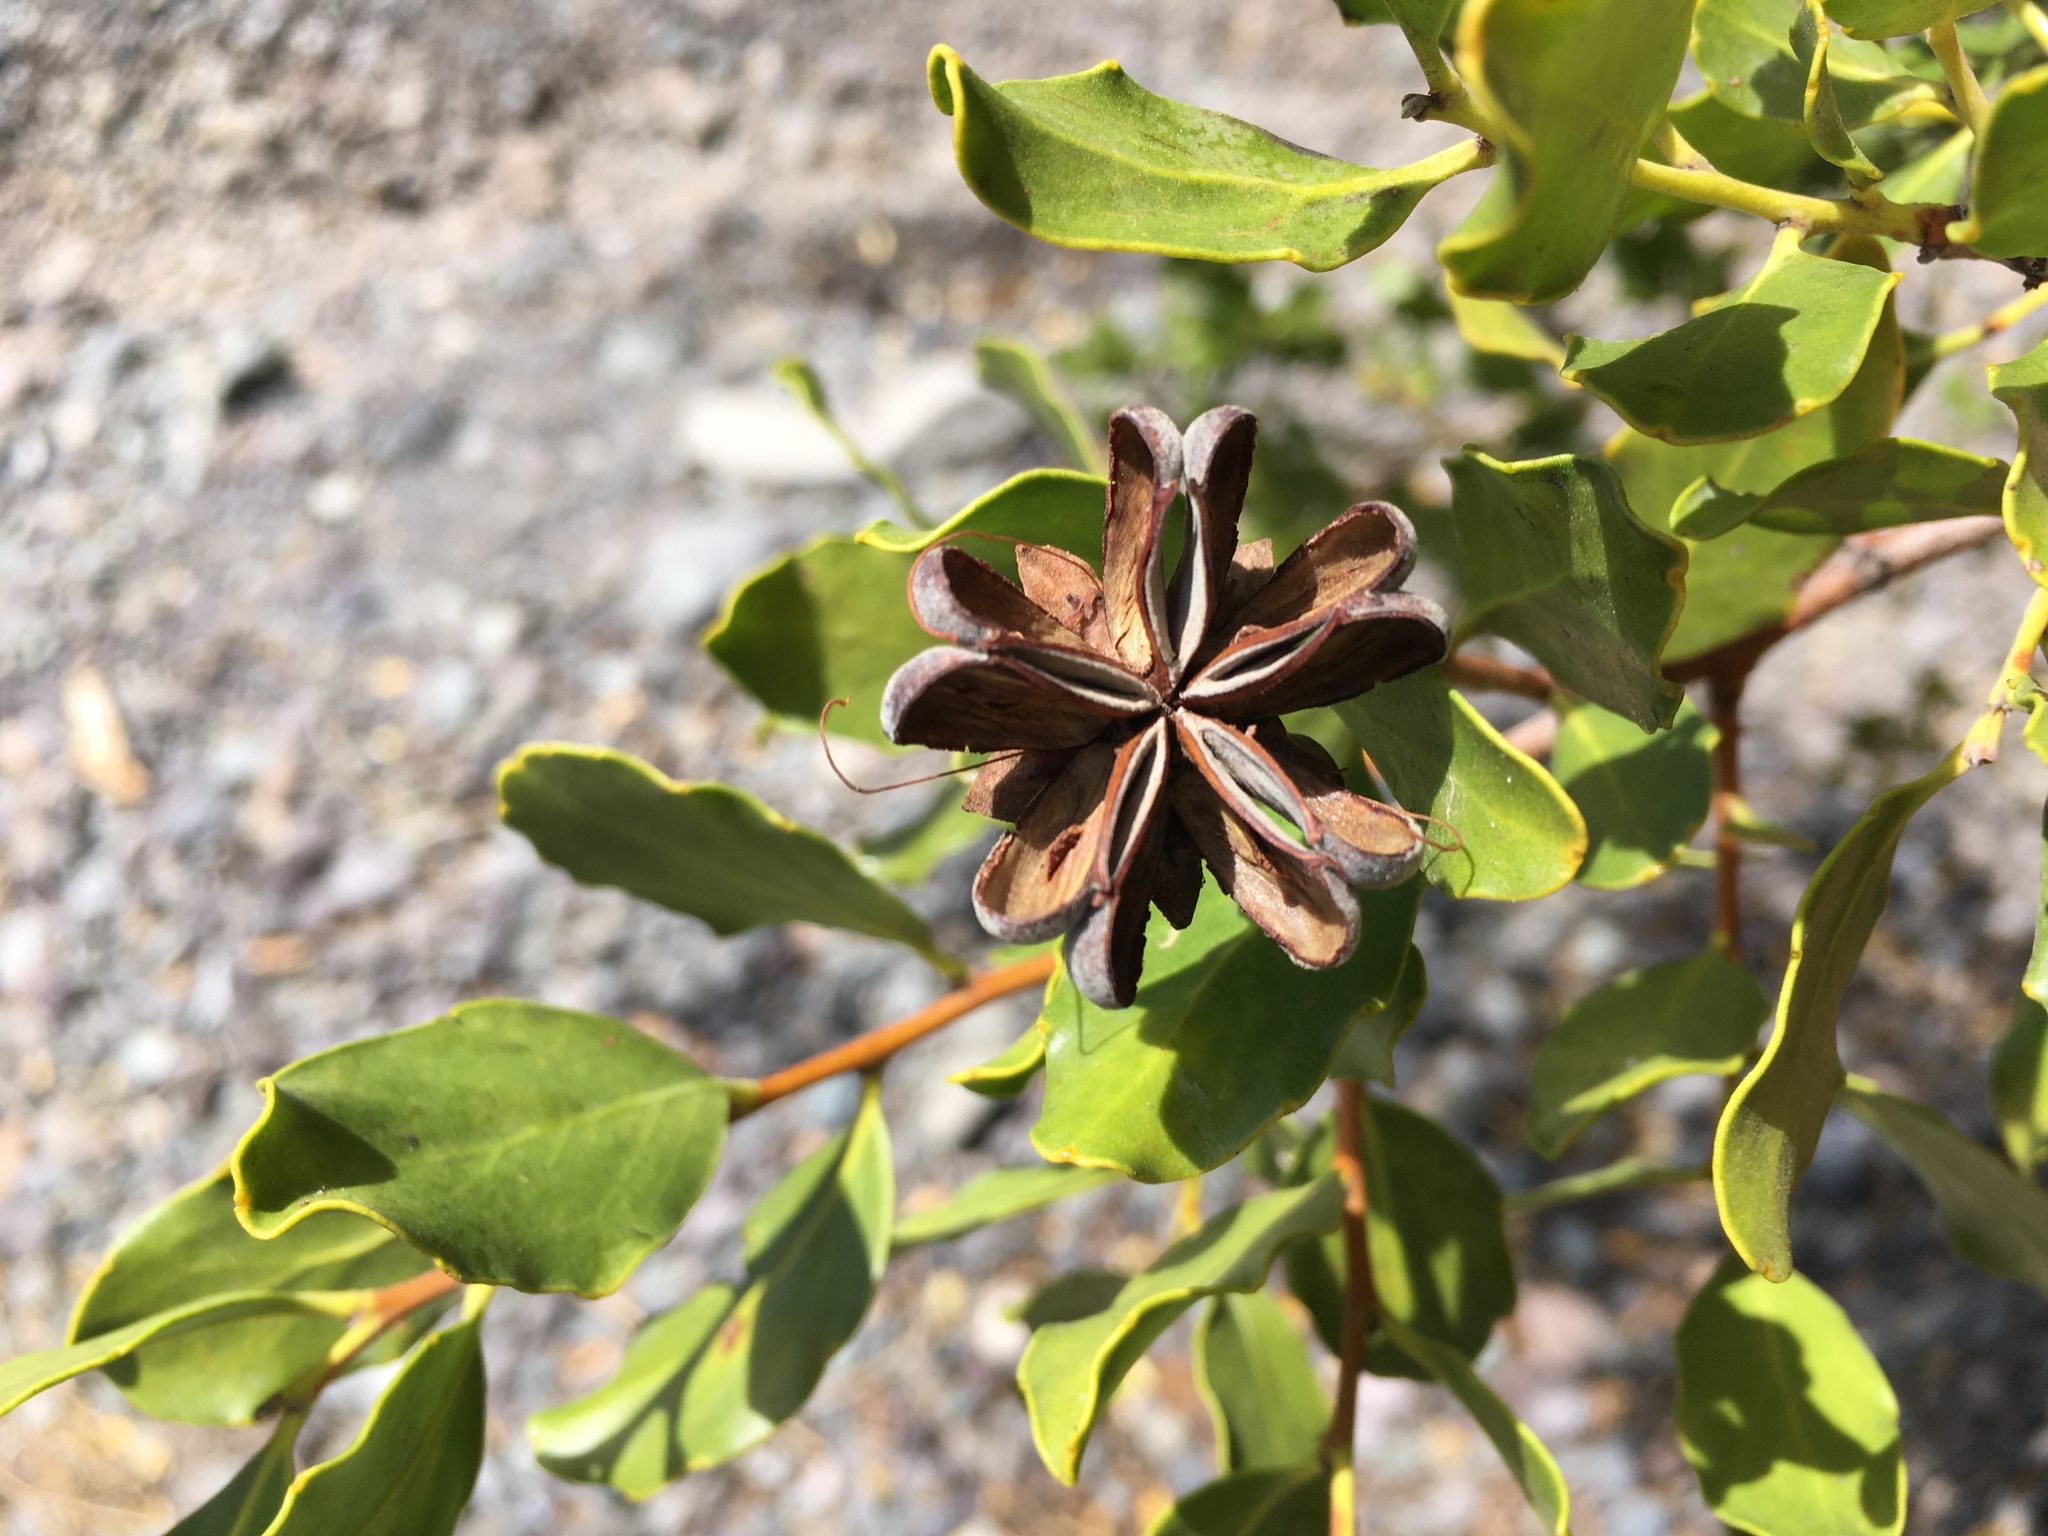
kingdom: Plantae
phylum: Tracheophyta
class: Magnoliopsida
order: Fabales
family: Quillajaceae
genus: Quillaja
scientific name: Quillaja saponaria
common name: Murillo's-bark
